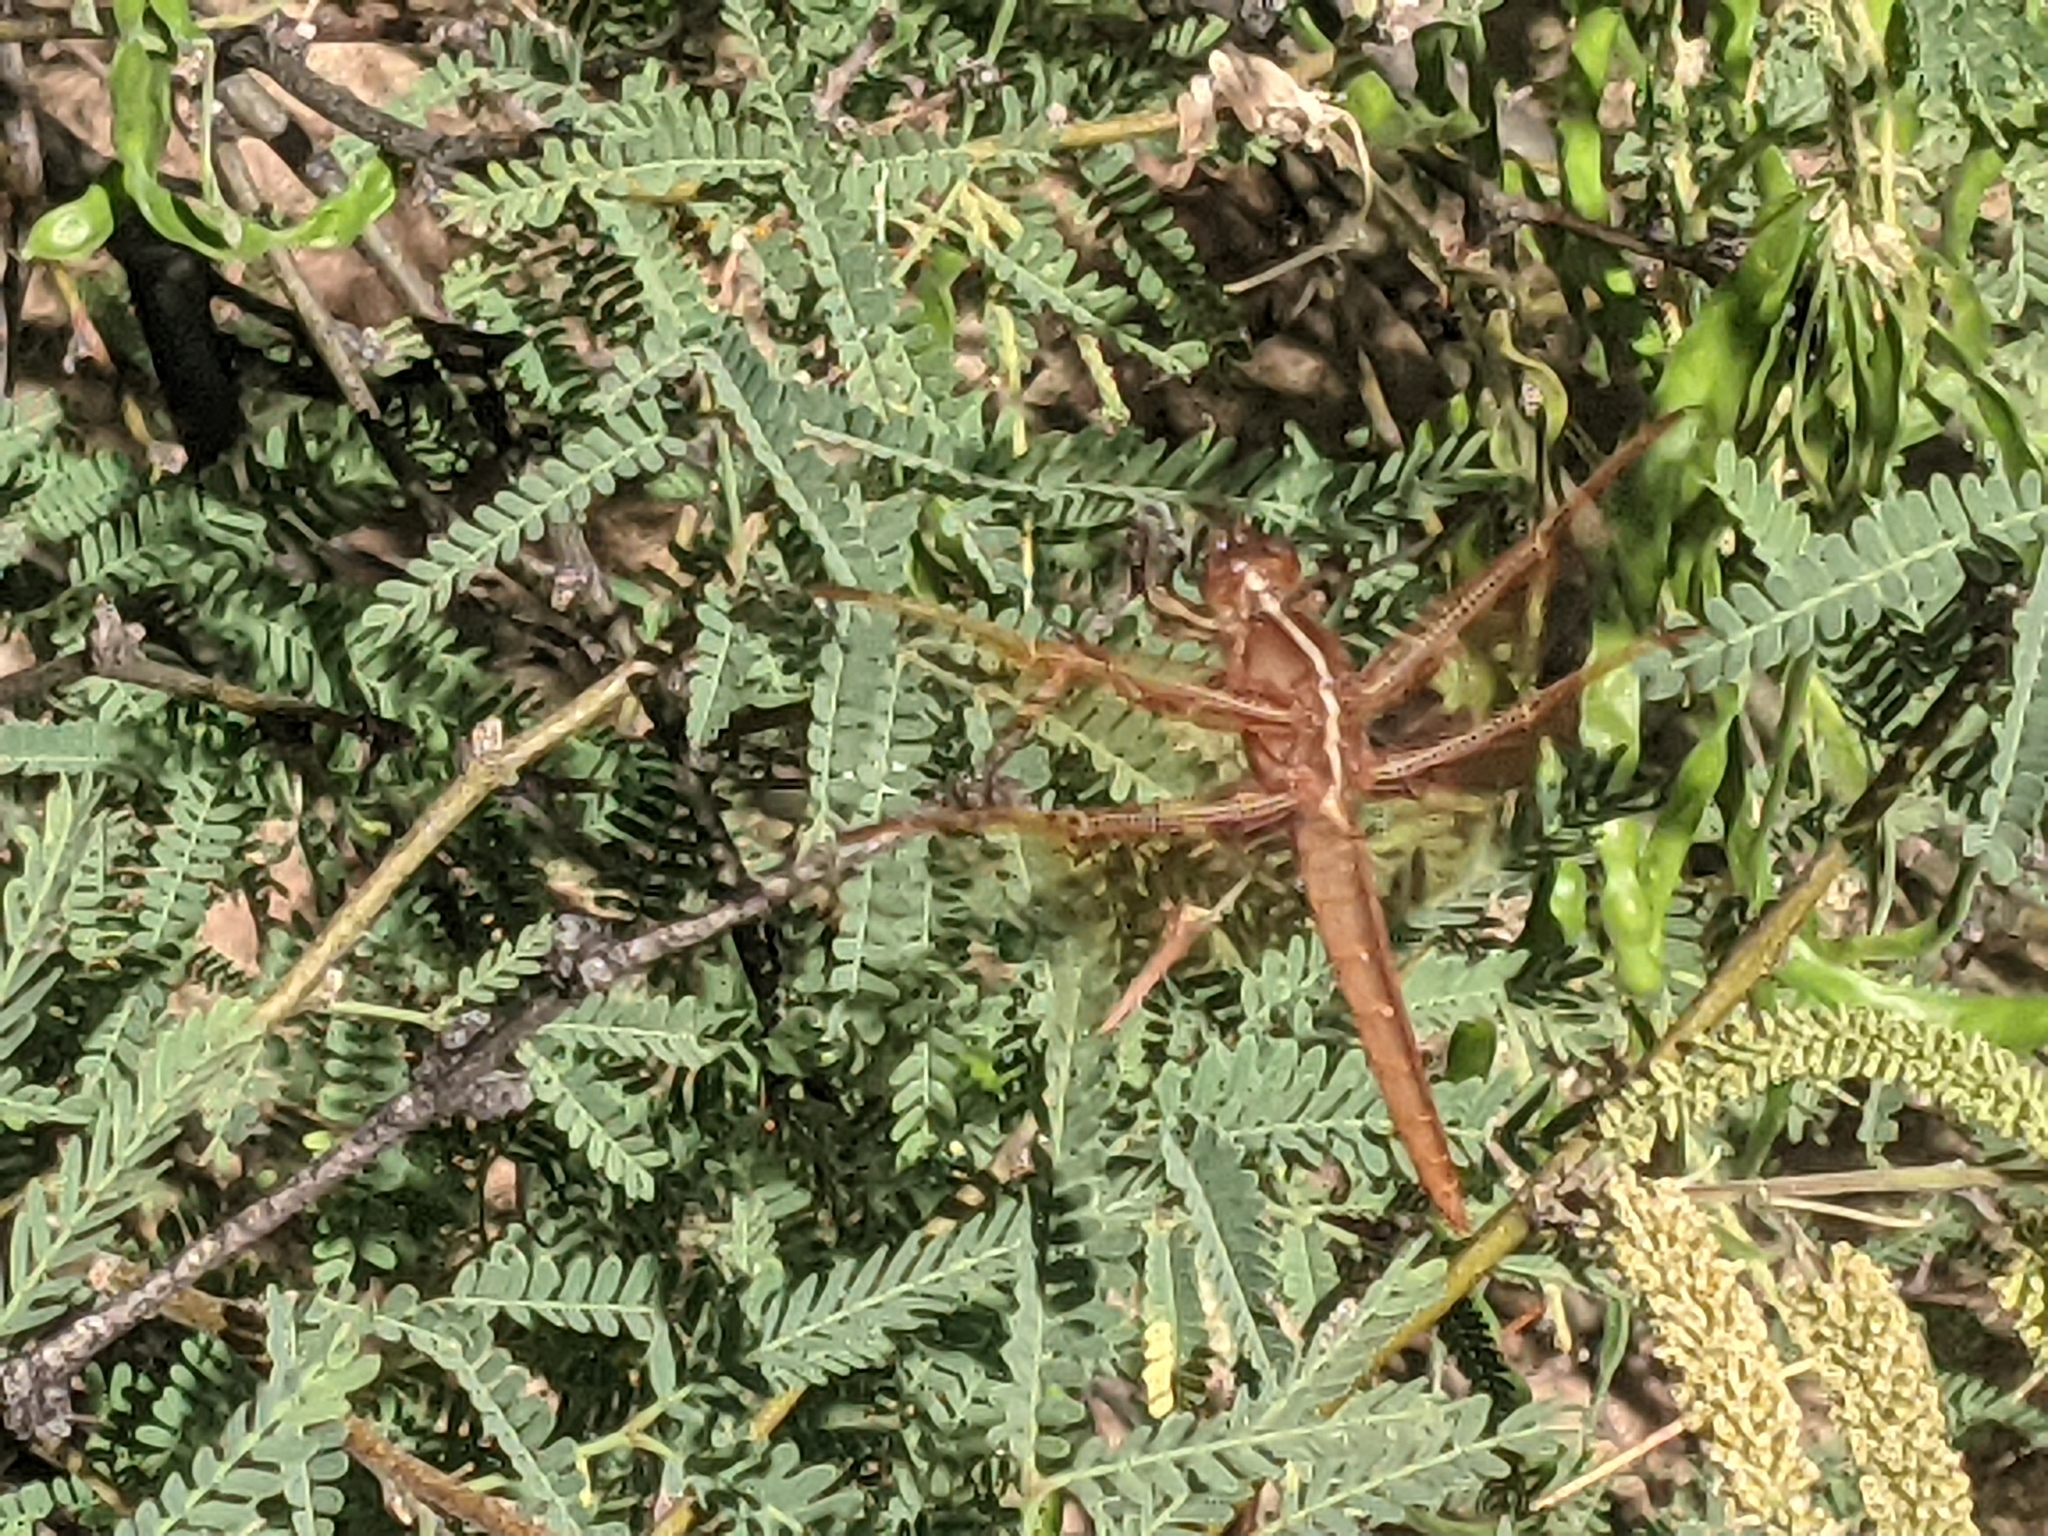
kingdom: Animalia
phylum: Arthropoda
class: Insecta
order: Odonata
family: Libellulidae
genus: Libellula
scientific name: Libellula saturata
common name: Flame skimmer
